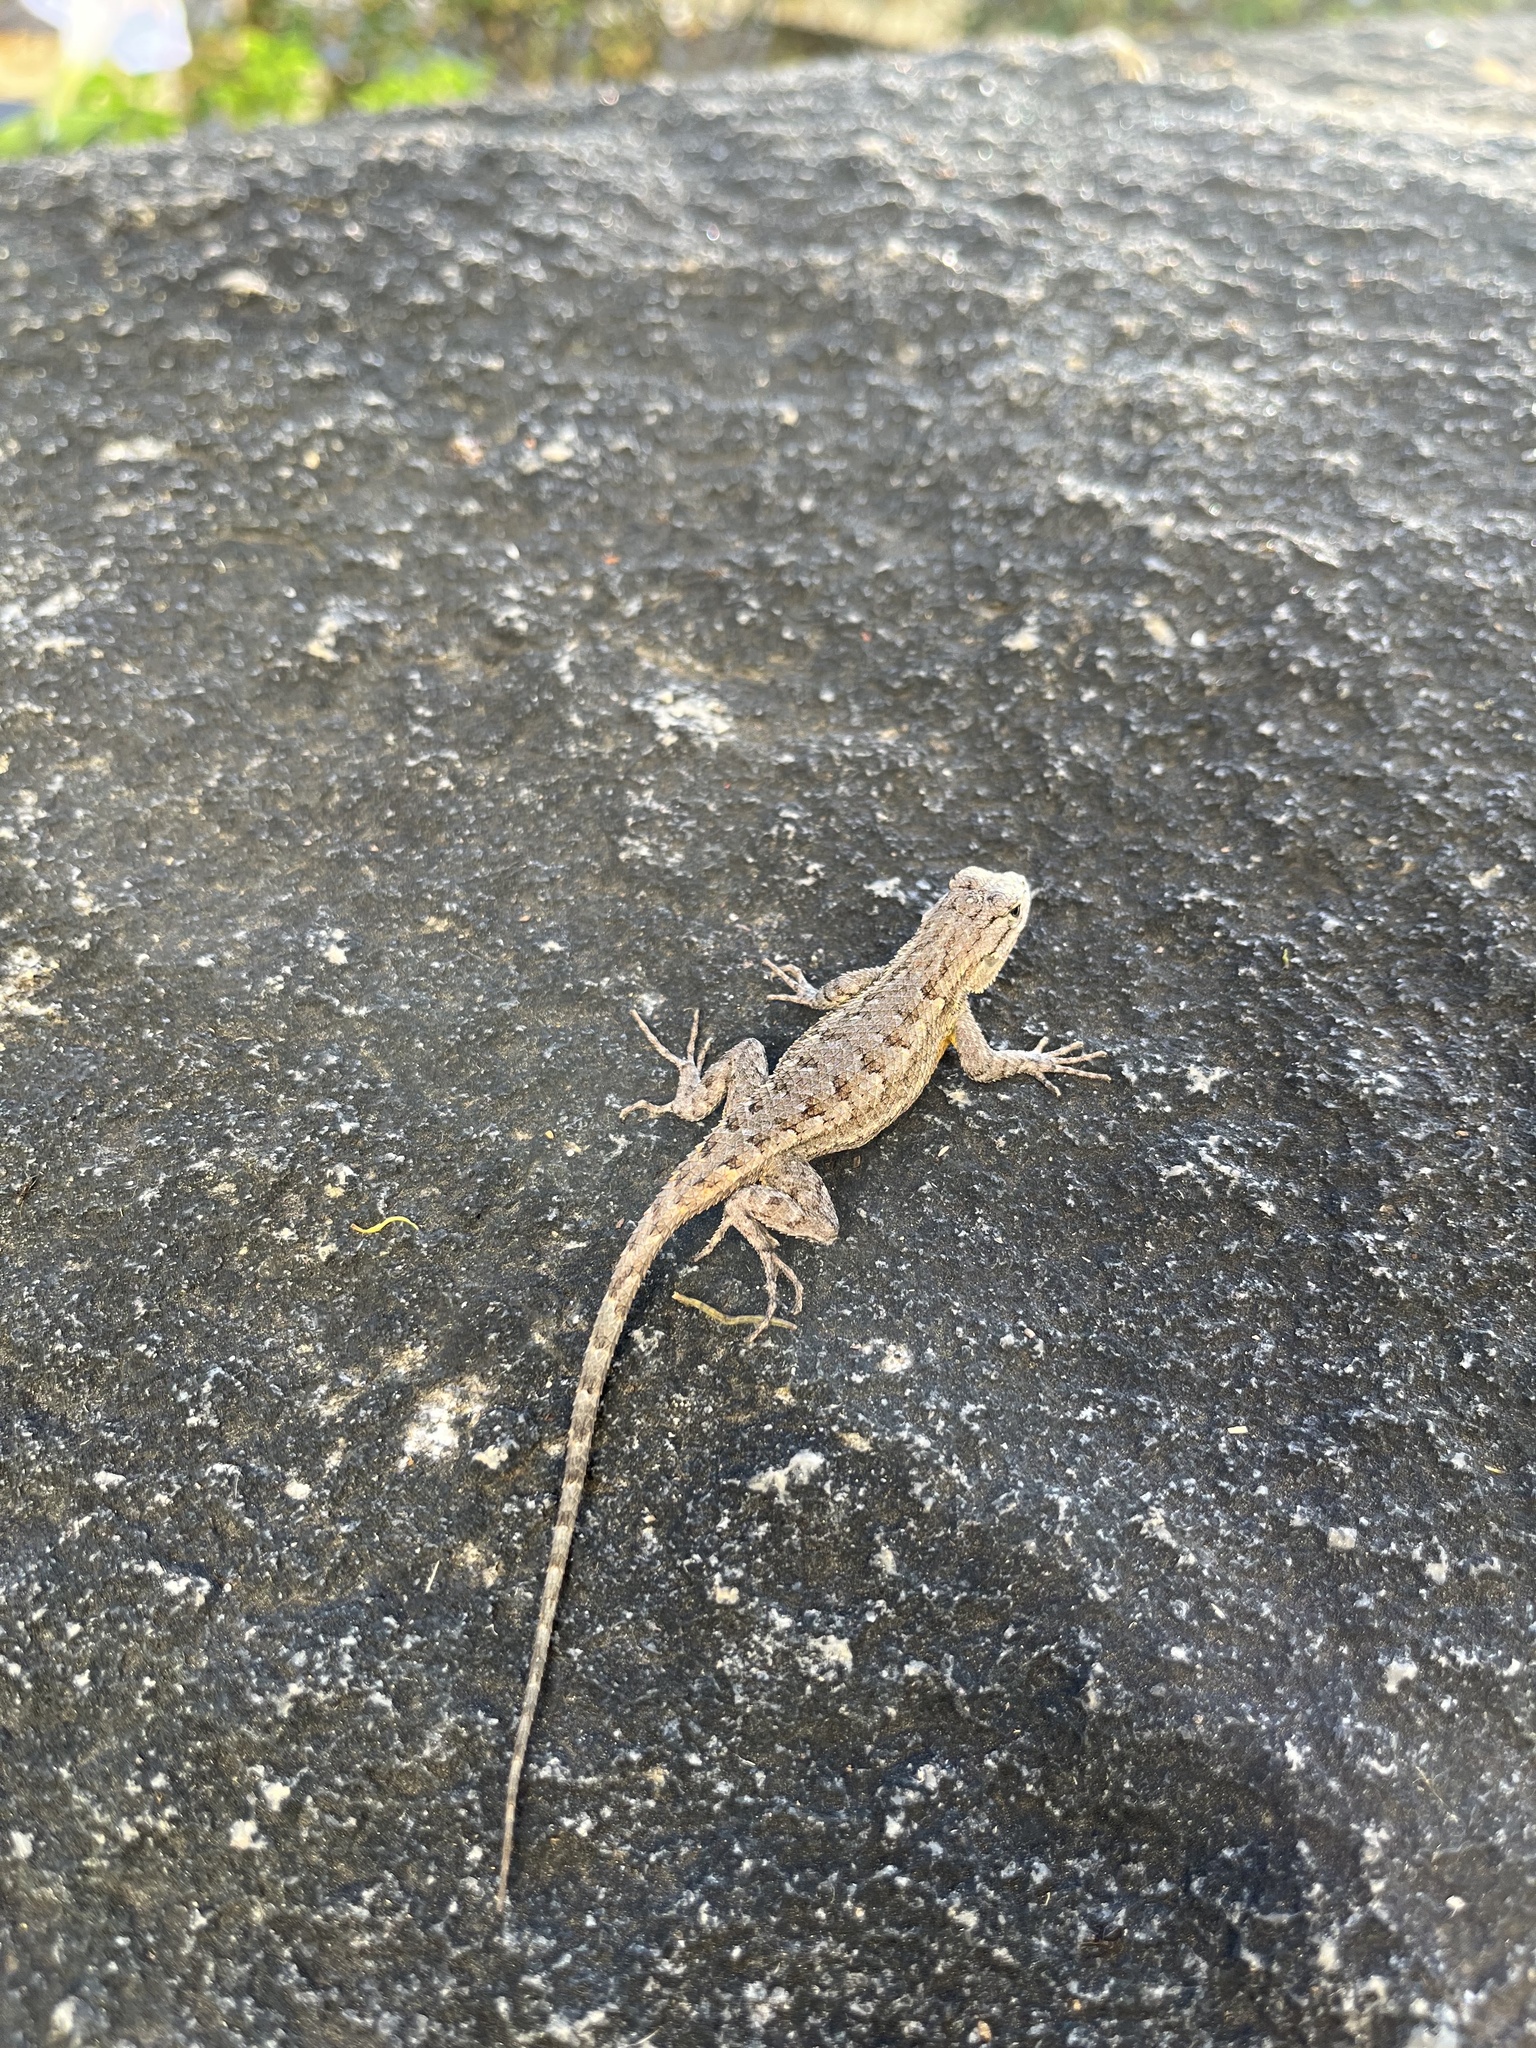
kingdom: Animalia
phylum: Chordata
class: Squamata
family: Phrynosomatidae
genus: Sceloporus
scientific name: Sceloporus occidentalis
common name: Western fence lizard
